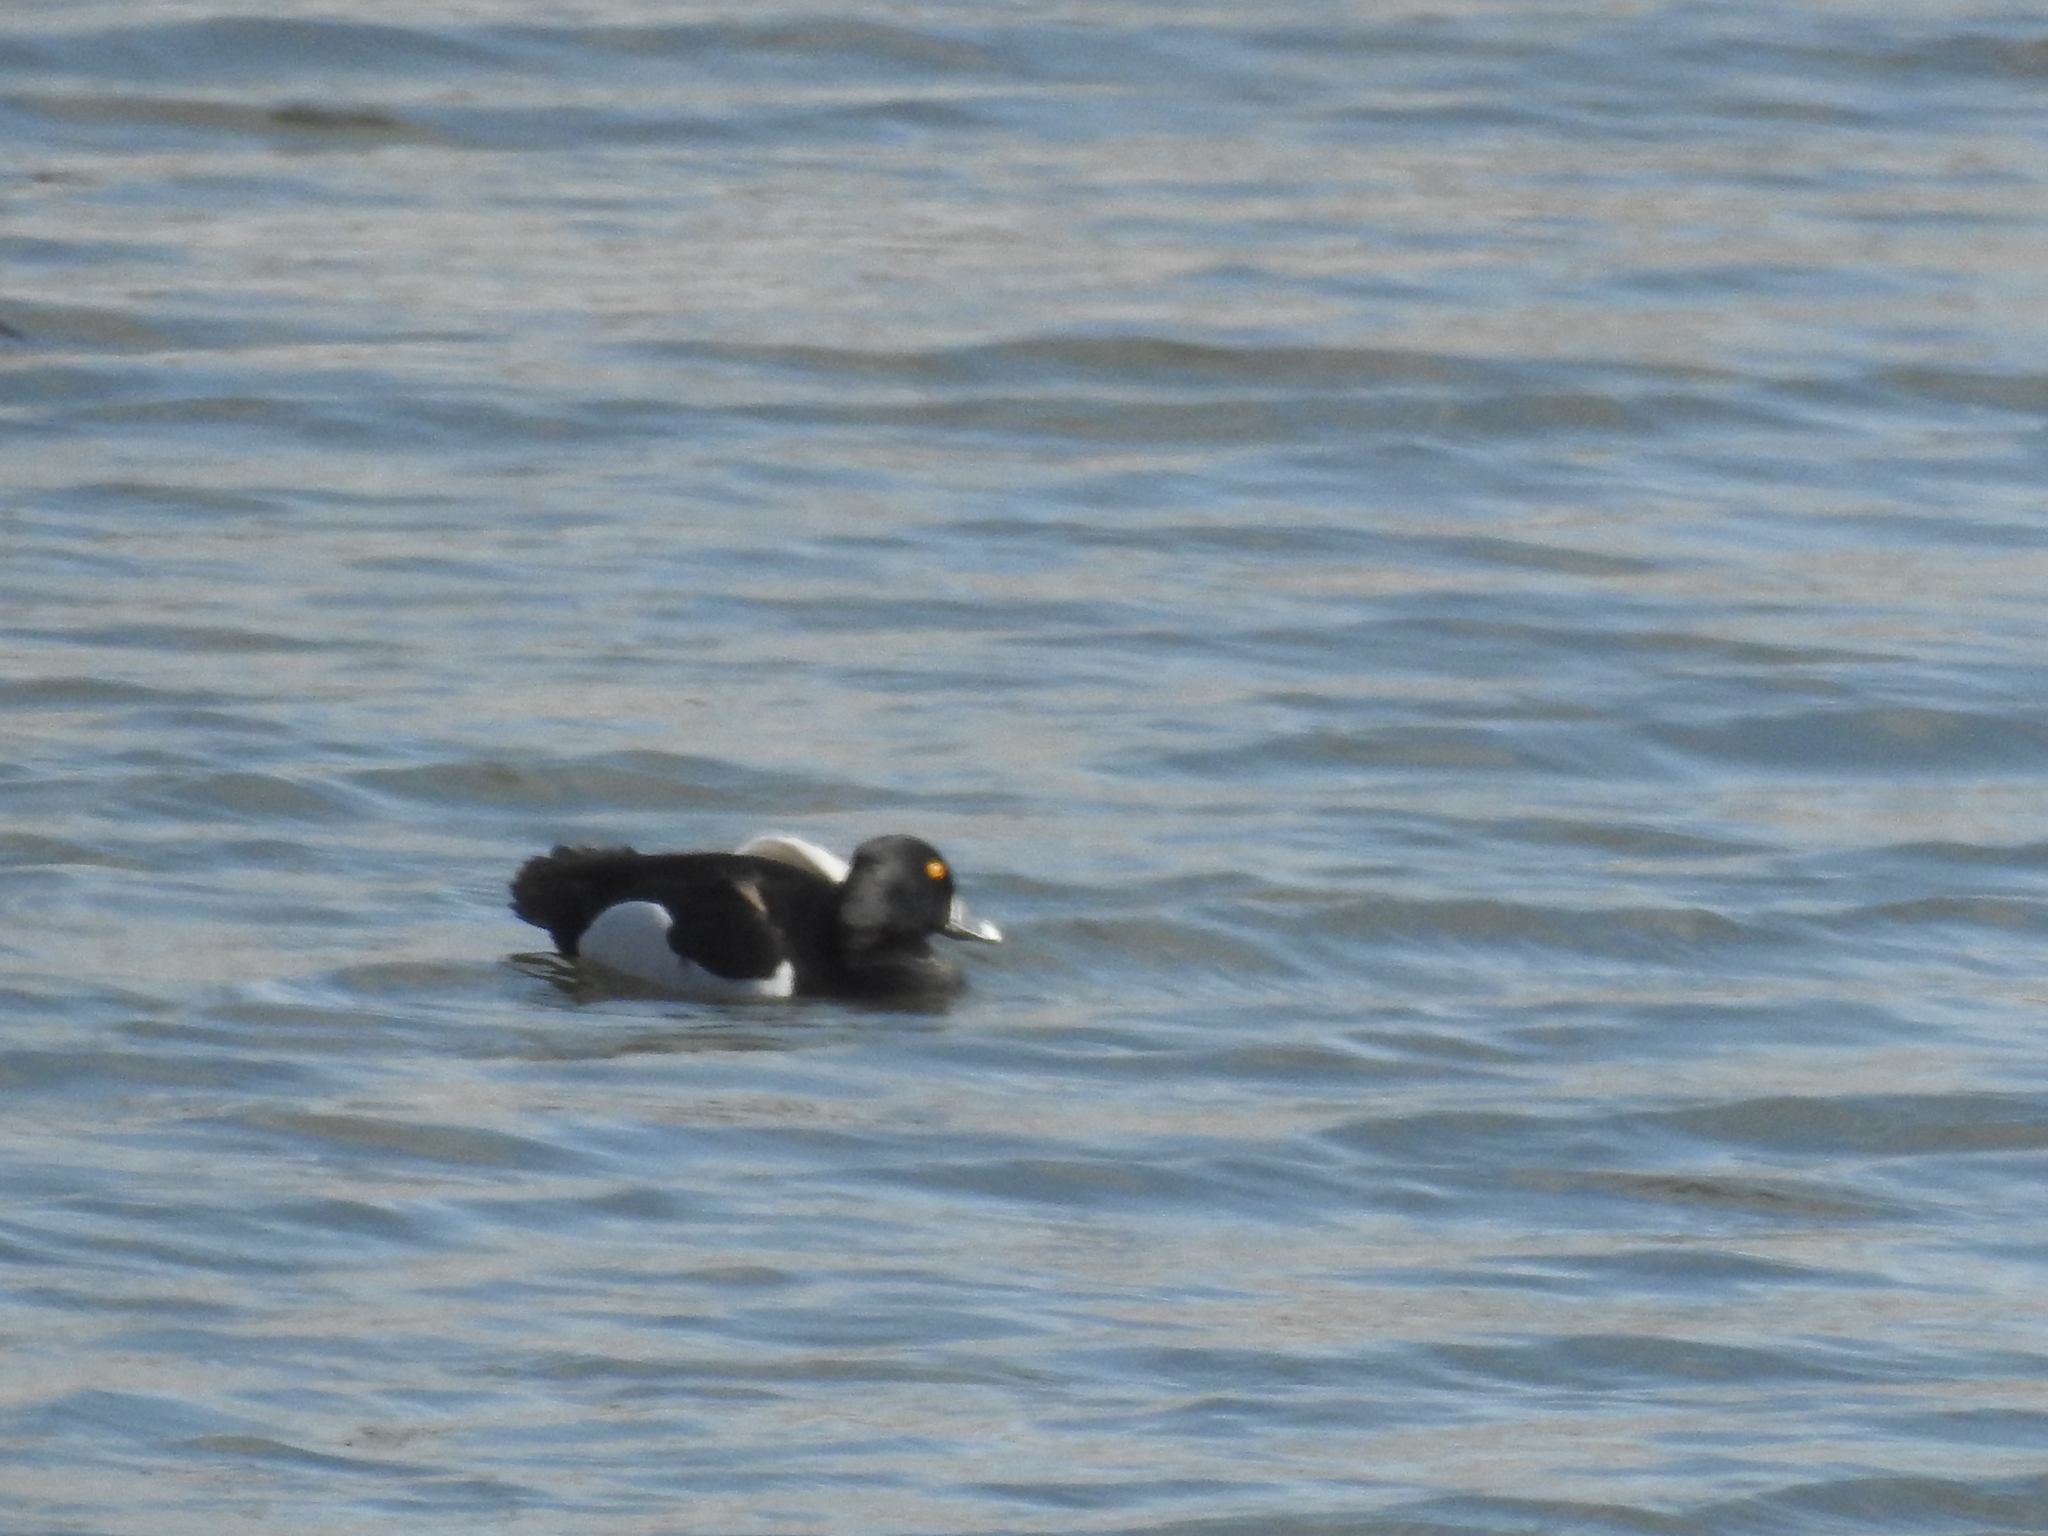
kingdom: Animalia
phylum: Chordata
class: Aves
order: Anseriformes
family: Anatidae
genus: Aythya
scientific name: Aythya collaris
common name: Ring-necked duck
